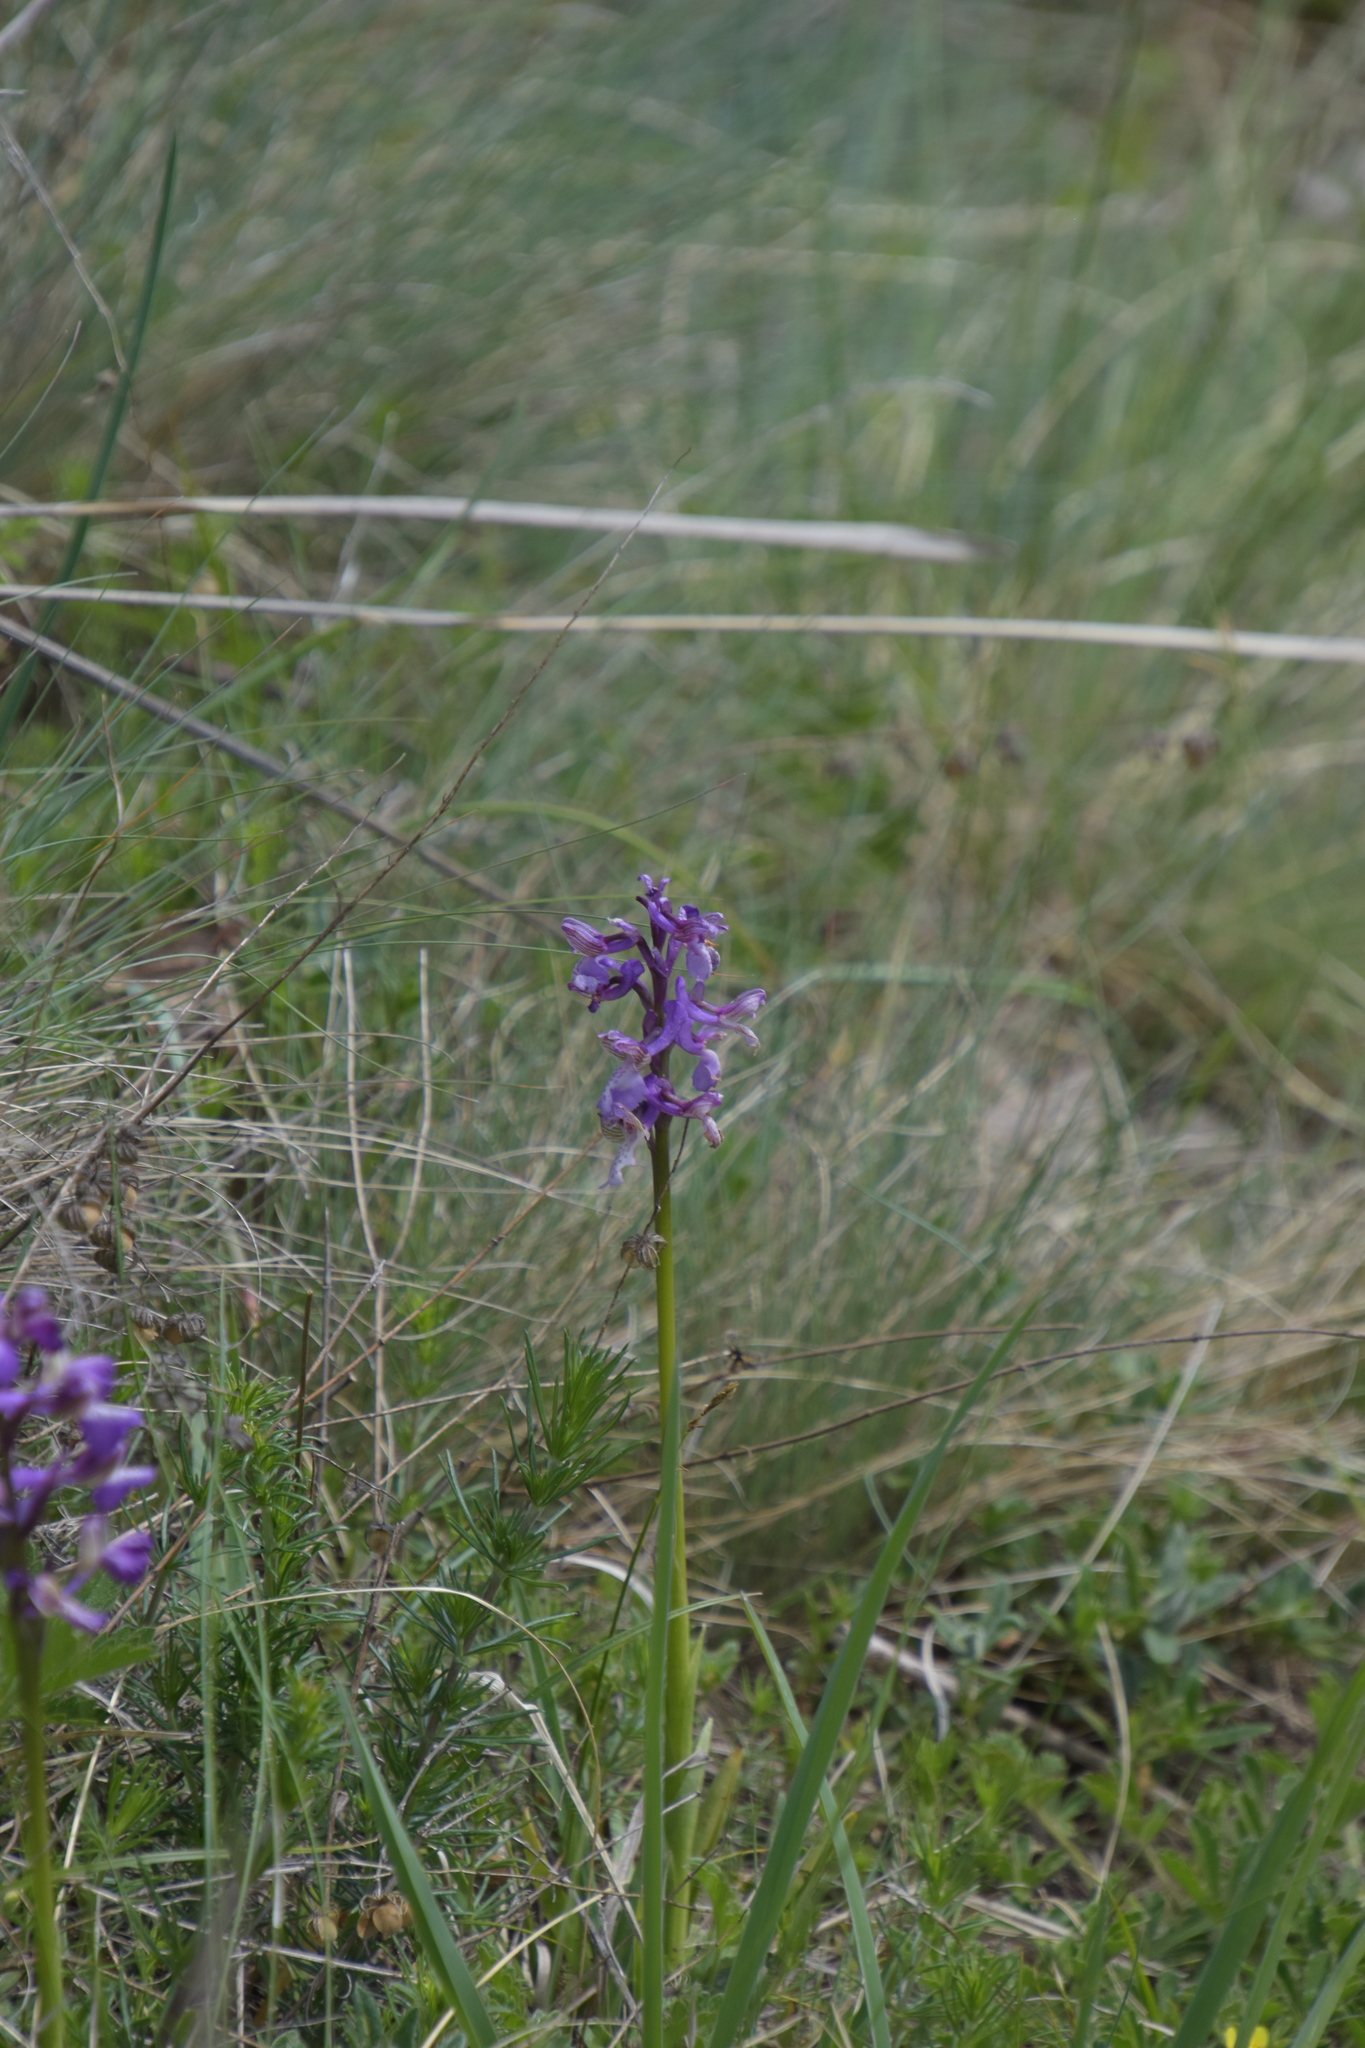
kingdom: Plantae
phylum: Tracheophyta
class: Liliopsida
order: Asparagales
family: Orchidaceae
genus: Anacamptis
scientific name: Anacamptis morio
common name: Green-winged orchid
